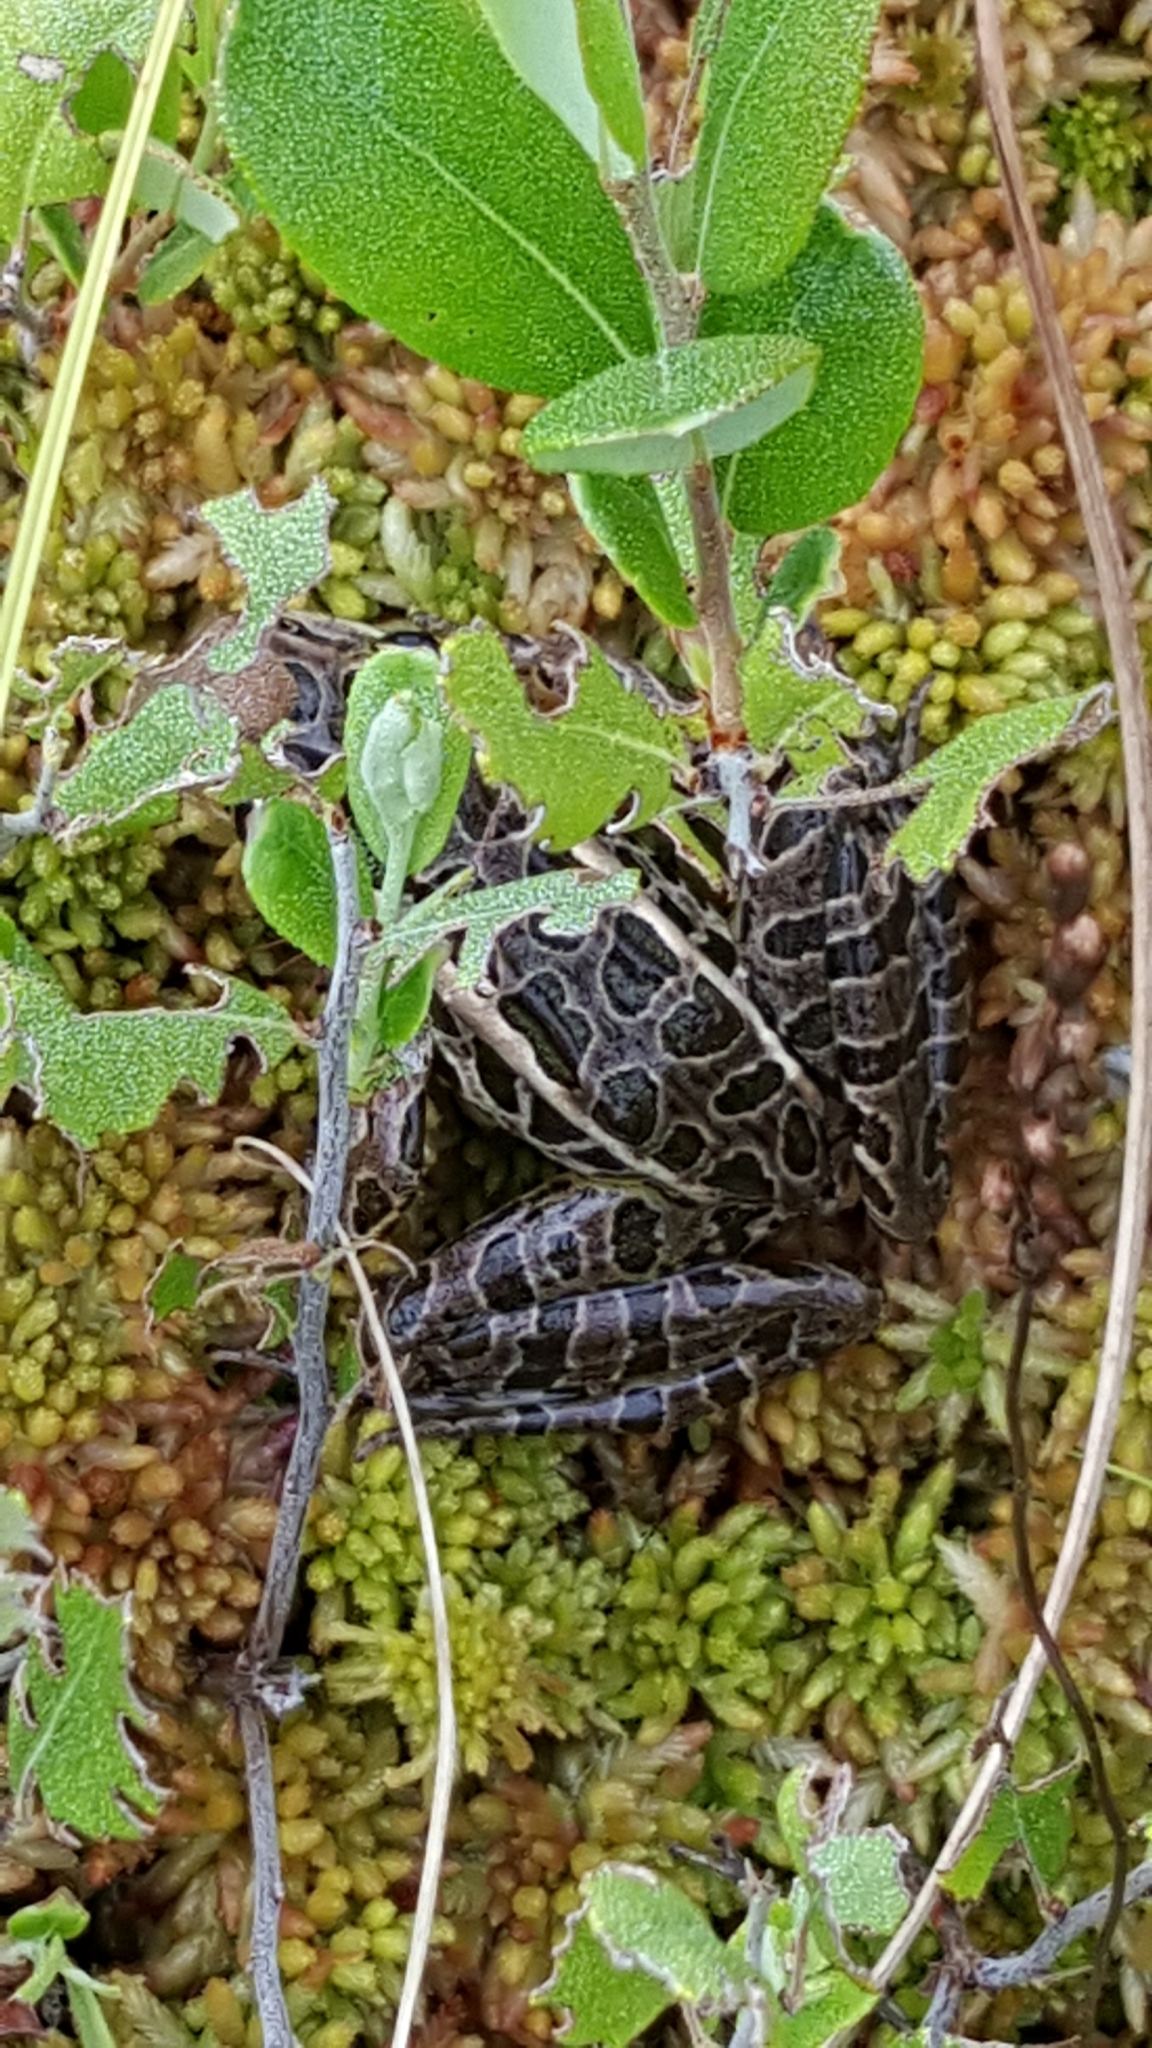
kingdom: Animalia
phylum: Chordata
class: Amphibia
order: Anura
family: Ranidae
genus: Lithobates
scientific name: Lithobates pipiens
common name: Northern leopard frog
